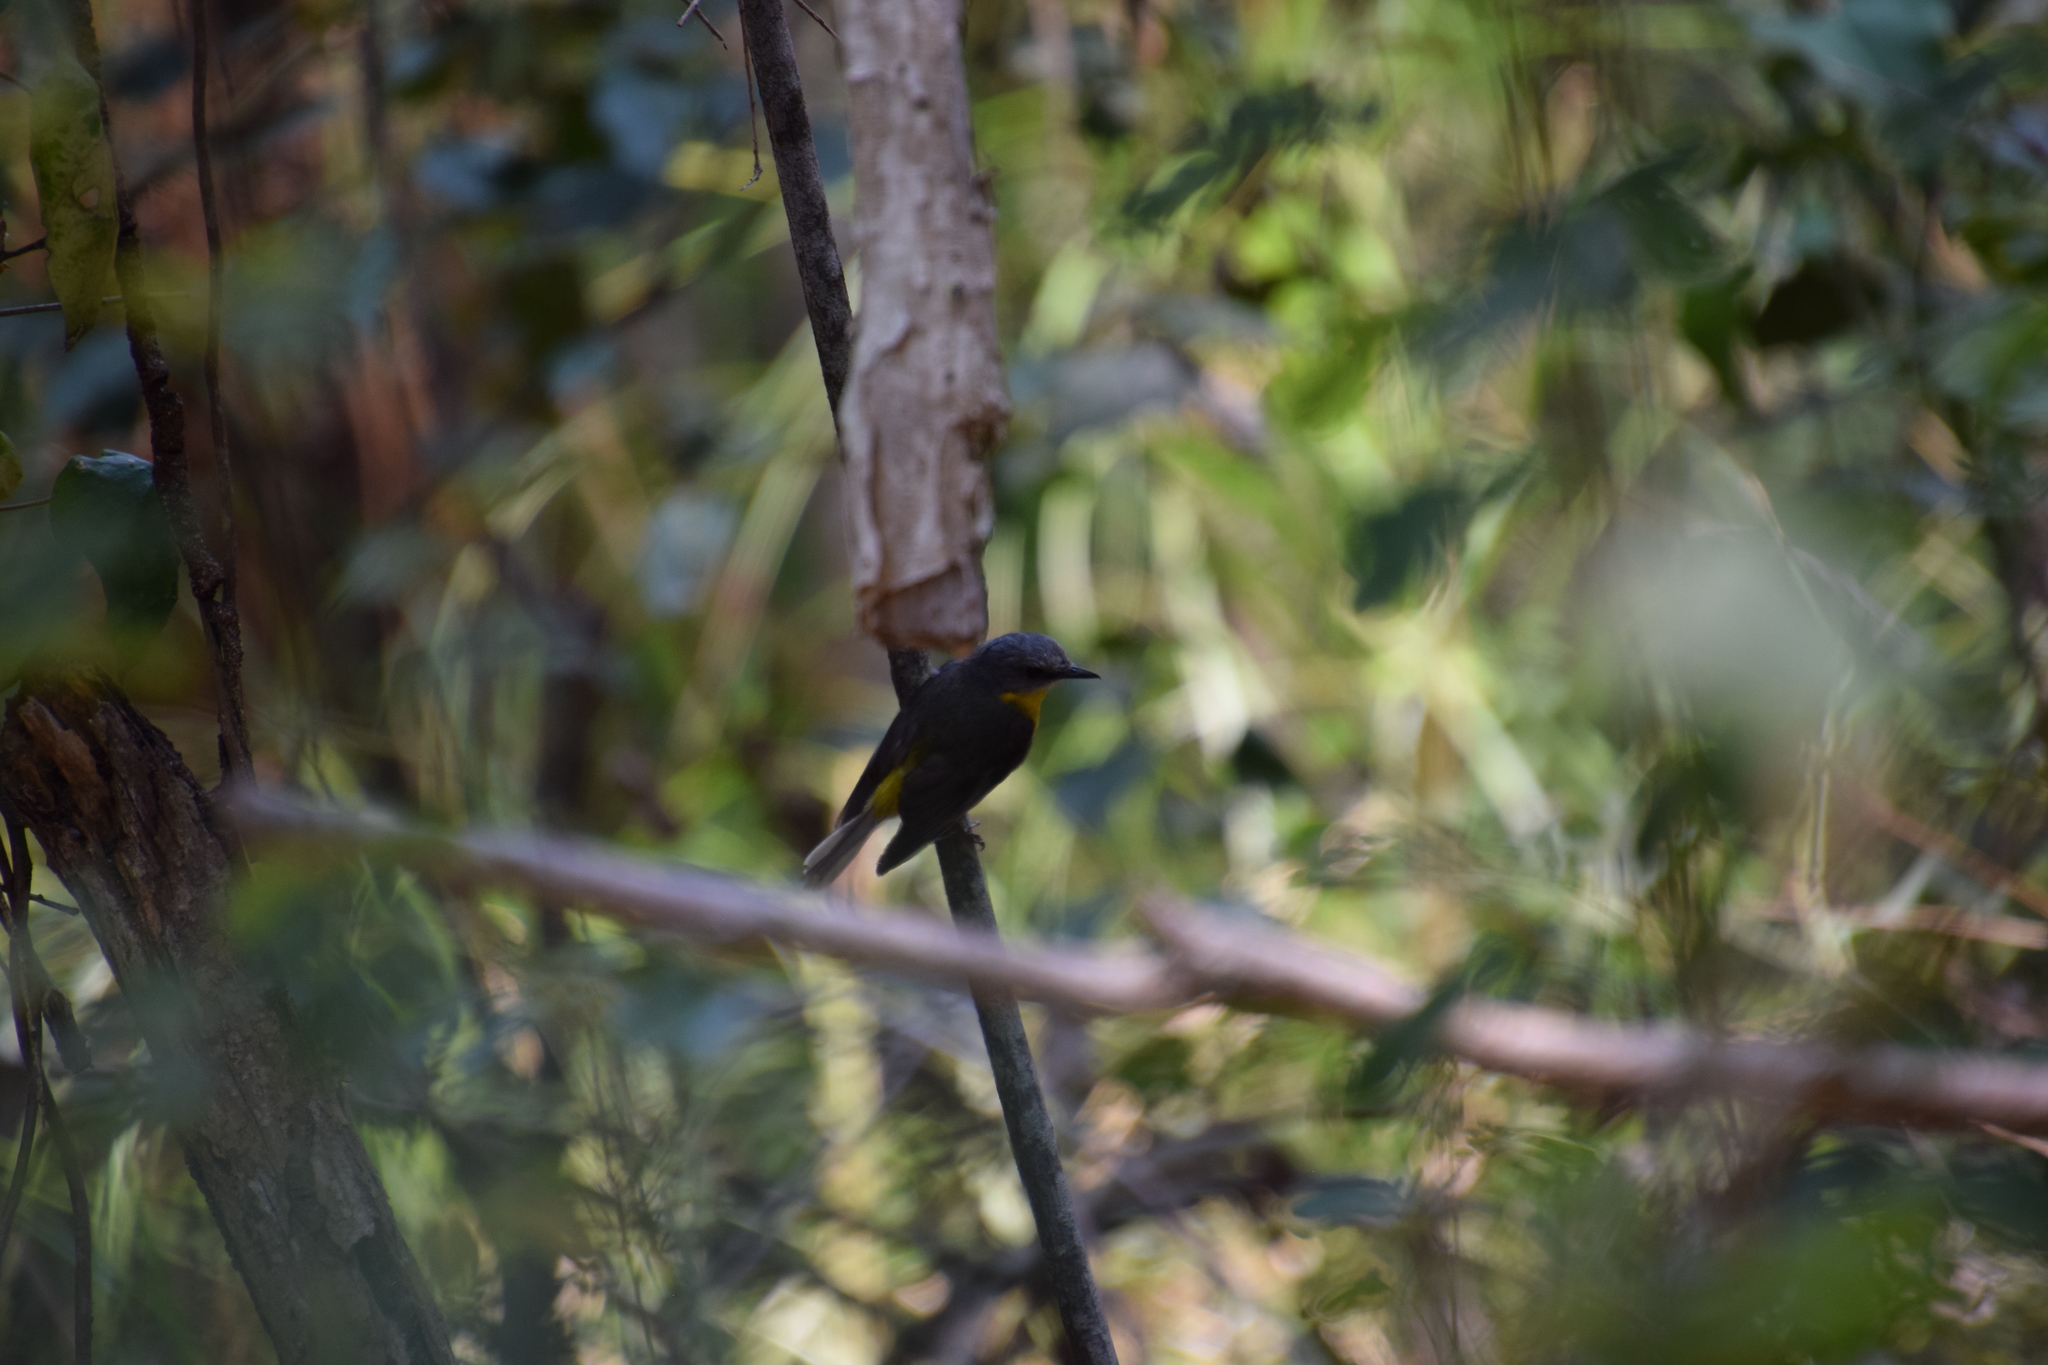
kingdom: Animalia
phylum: Chordata
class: Aves
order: Passeriformes
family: Petroicidae
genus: Eopsaltria
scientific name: Eopsaltria australis
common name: Eastern yellow robin
